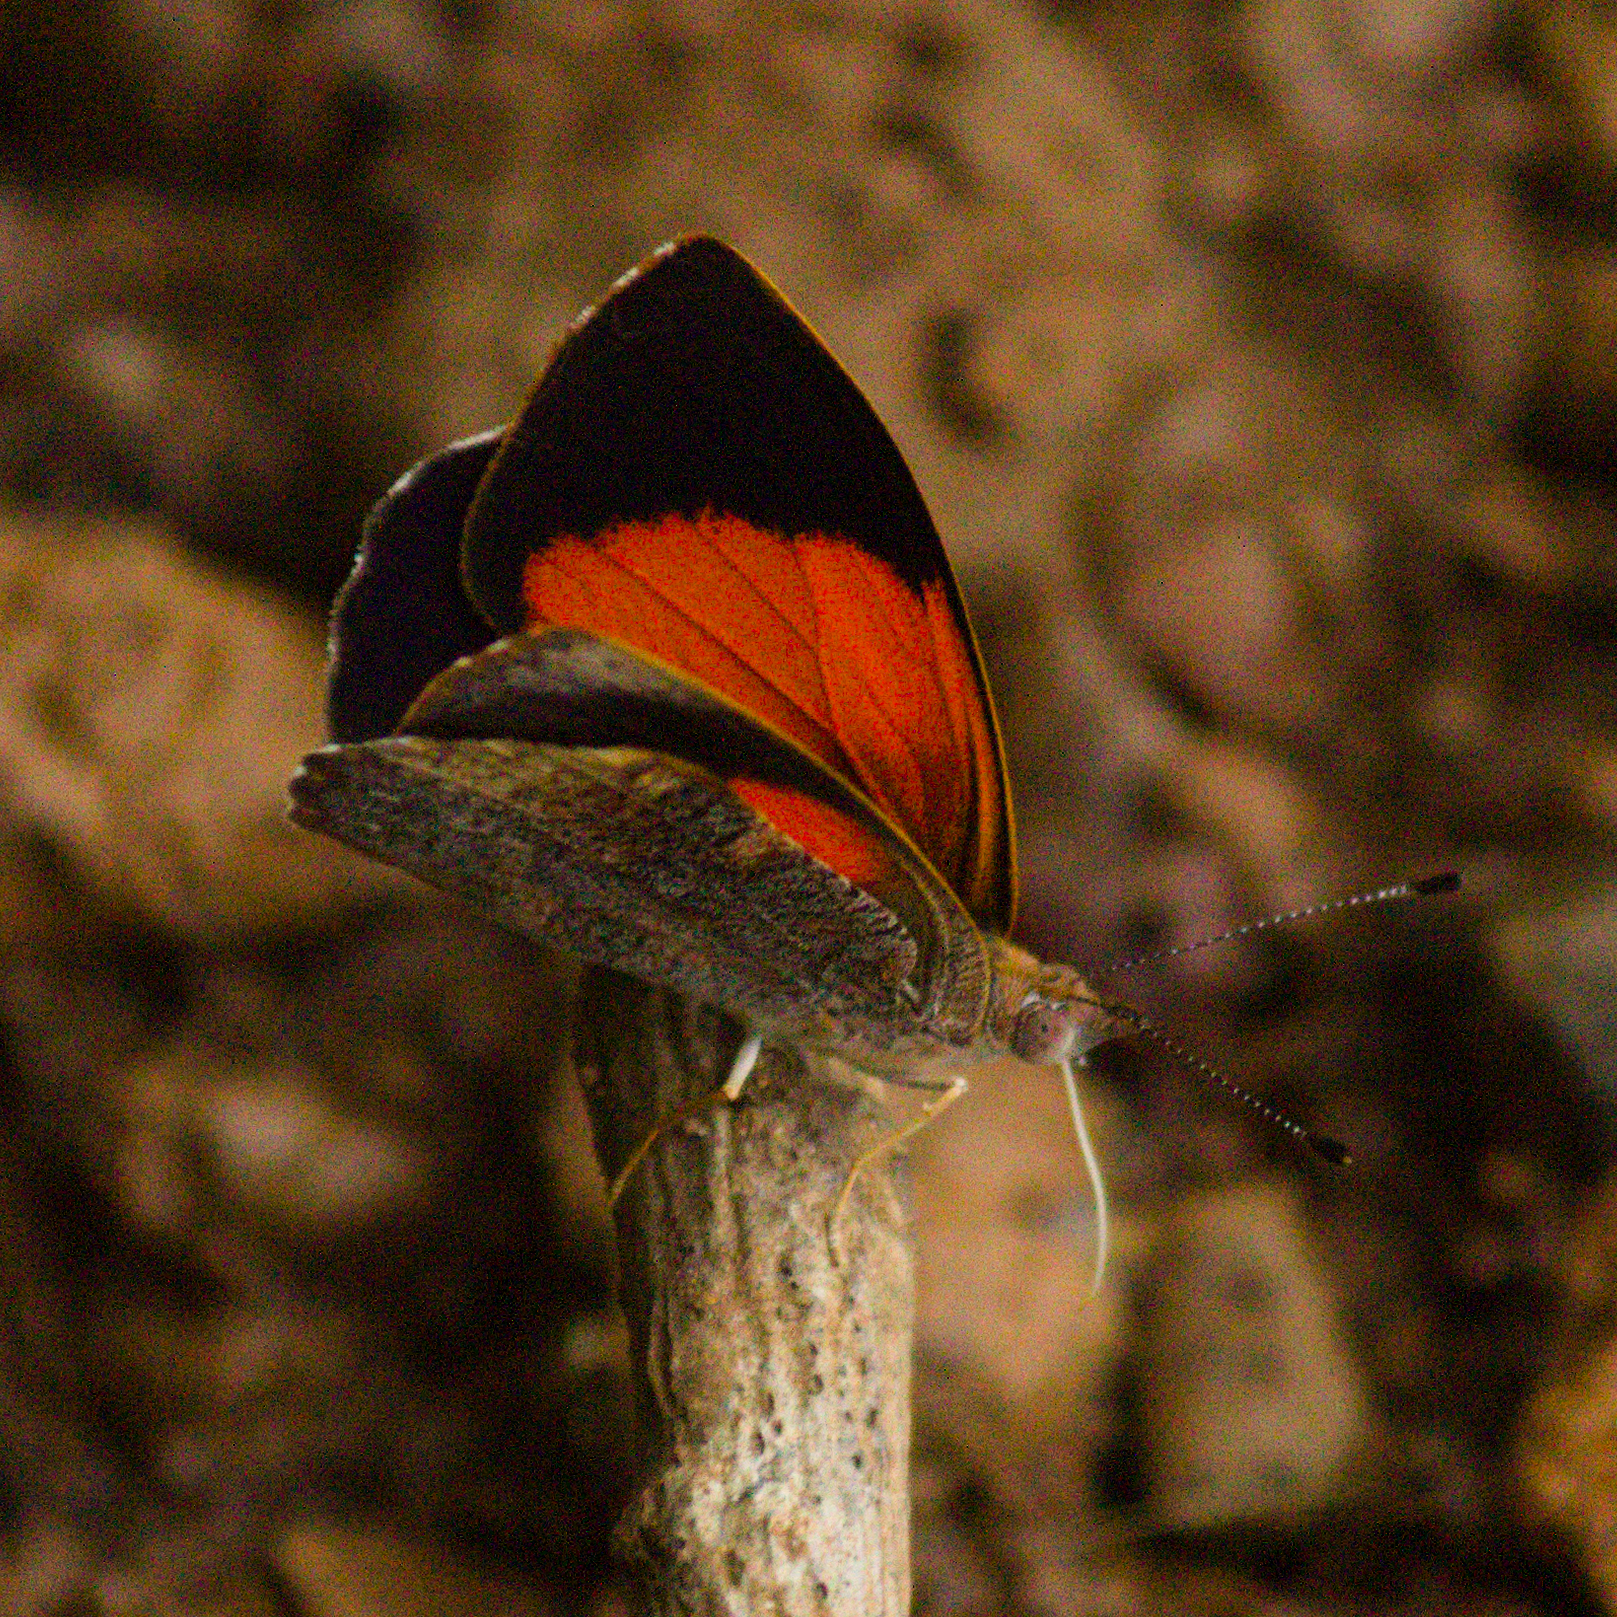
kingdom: Animalia
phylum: Arthropoda
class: Insecta
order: Lepidoptera
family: Nymphalidae
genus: Haematera
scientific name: Haematera pyrame
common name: Blind eighty-eight
